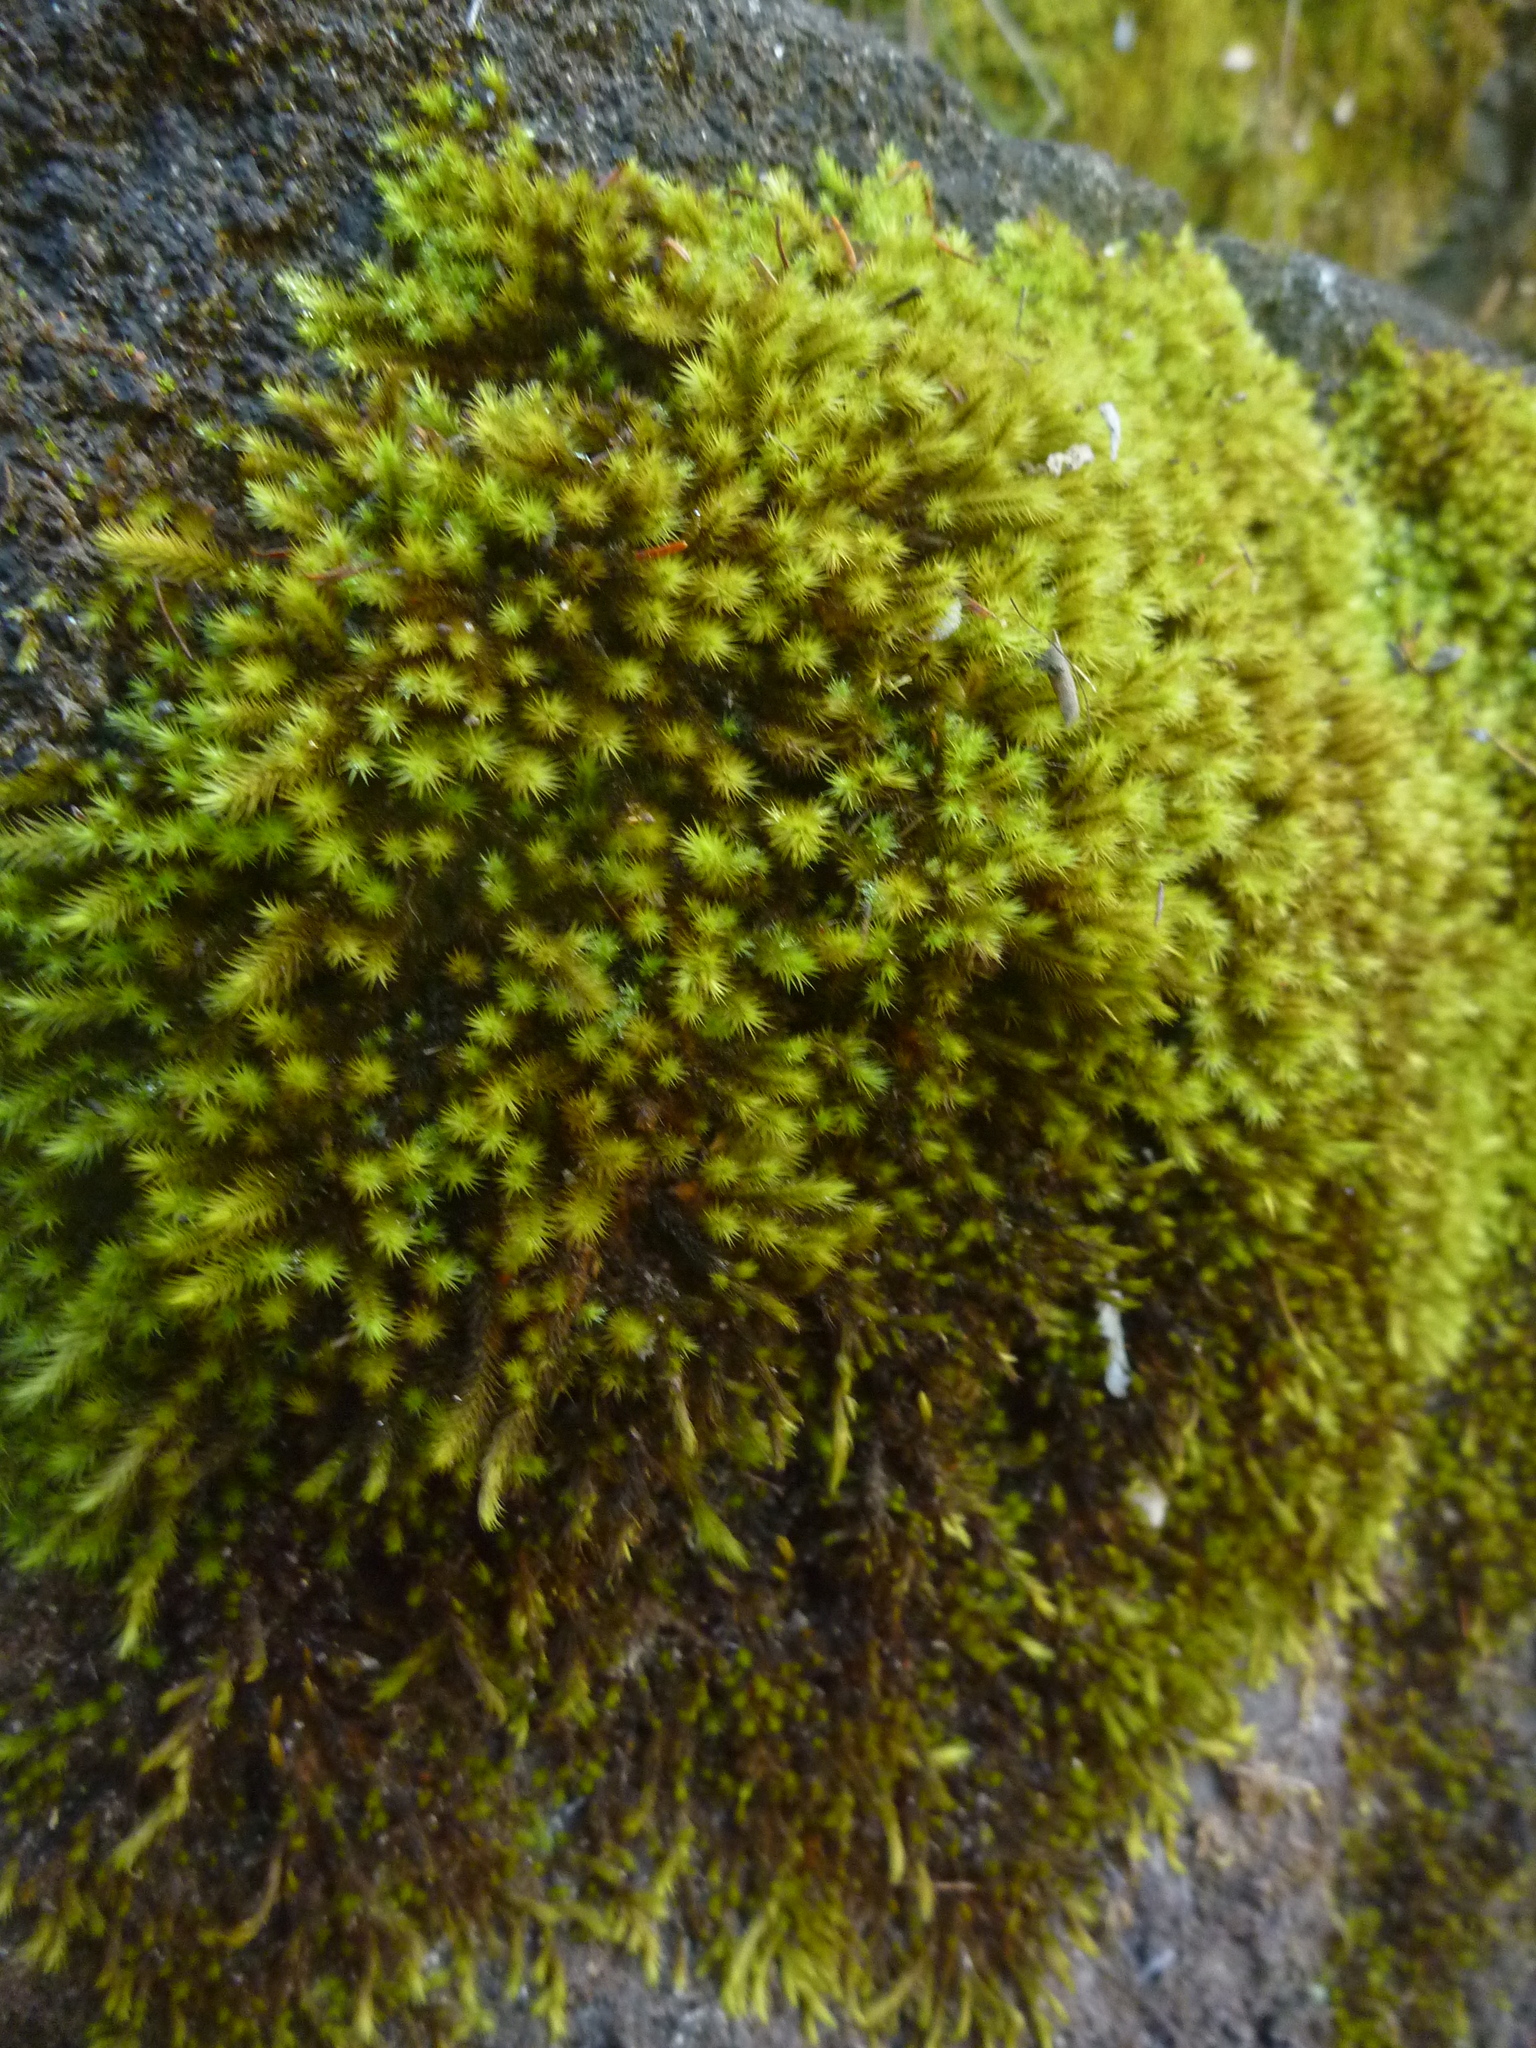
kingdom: Plantae
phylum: Bryophyta
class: Bryopsida
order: Hypnales
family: Leucodontaceae
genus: Leucodon
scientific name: Leucodon sciuroides
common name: Squirrel-tail moss
